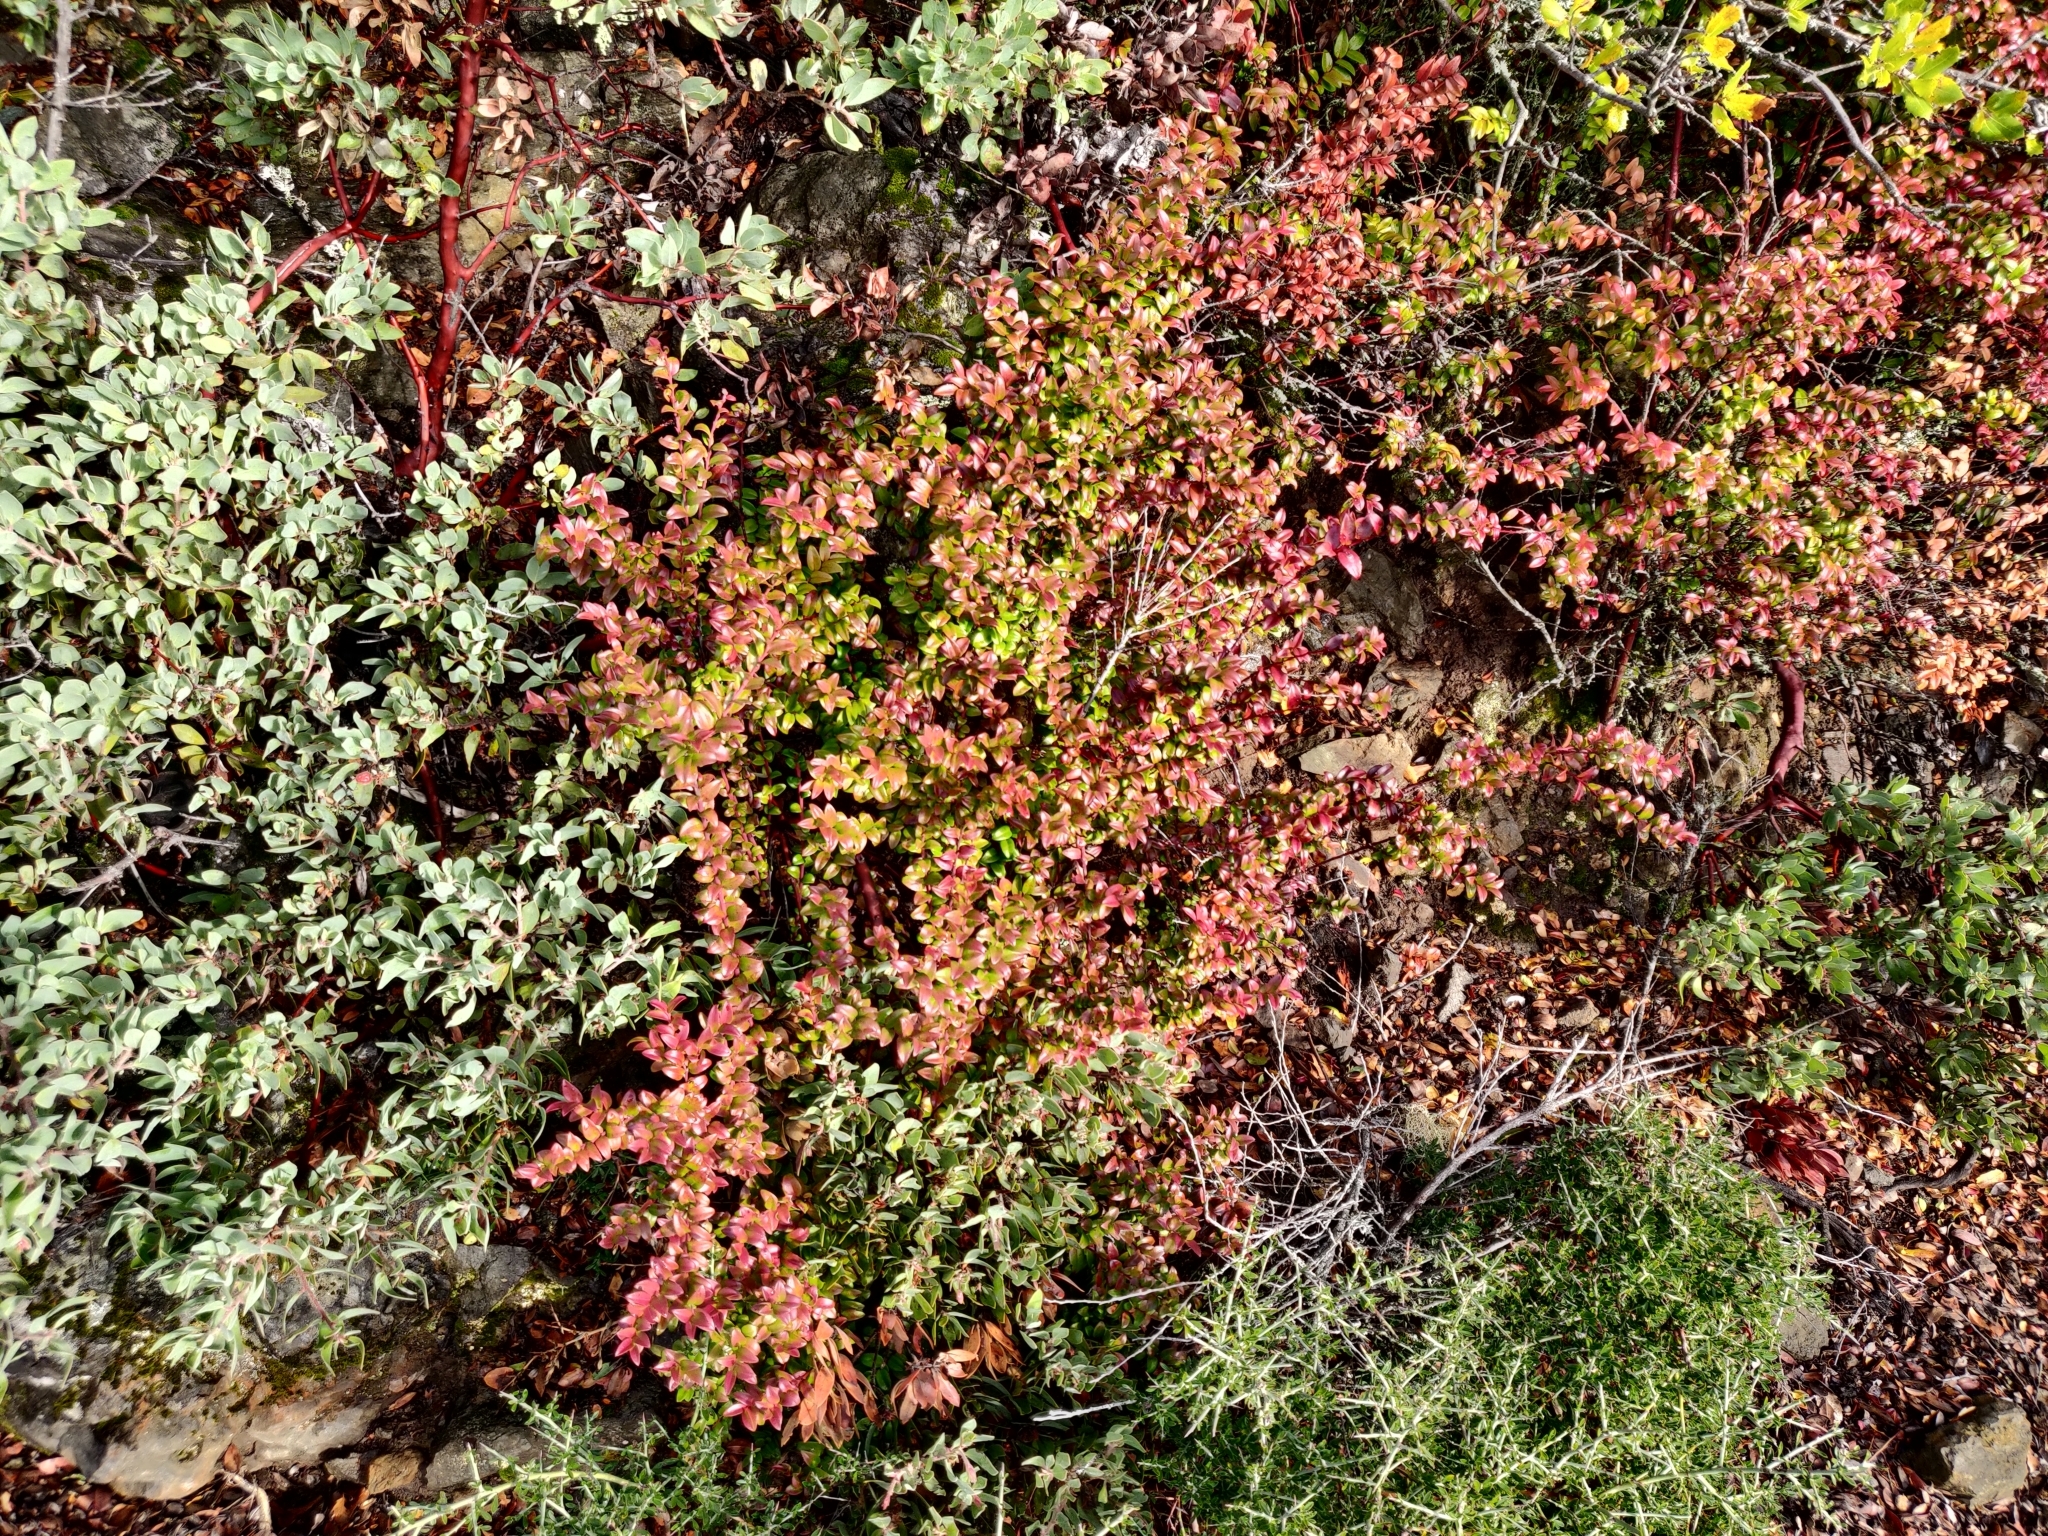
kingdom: Plantae
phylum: Tracheophyta
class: Magnoliopsida
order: Ericales
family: Ericaceae
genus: Vaccinium
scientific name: Vaccinium ovatum
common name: California-huckleberry
